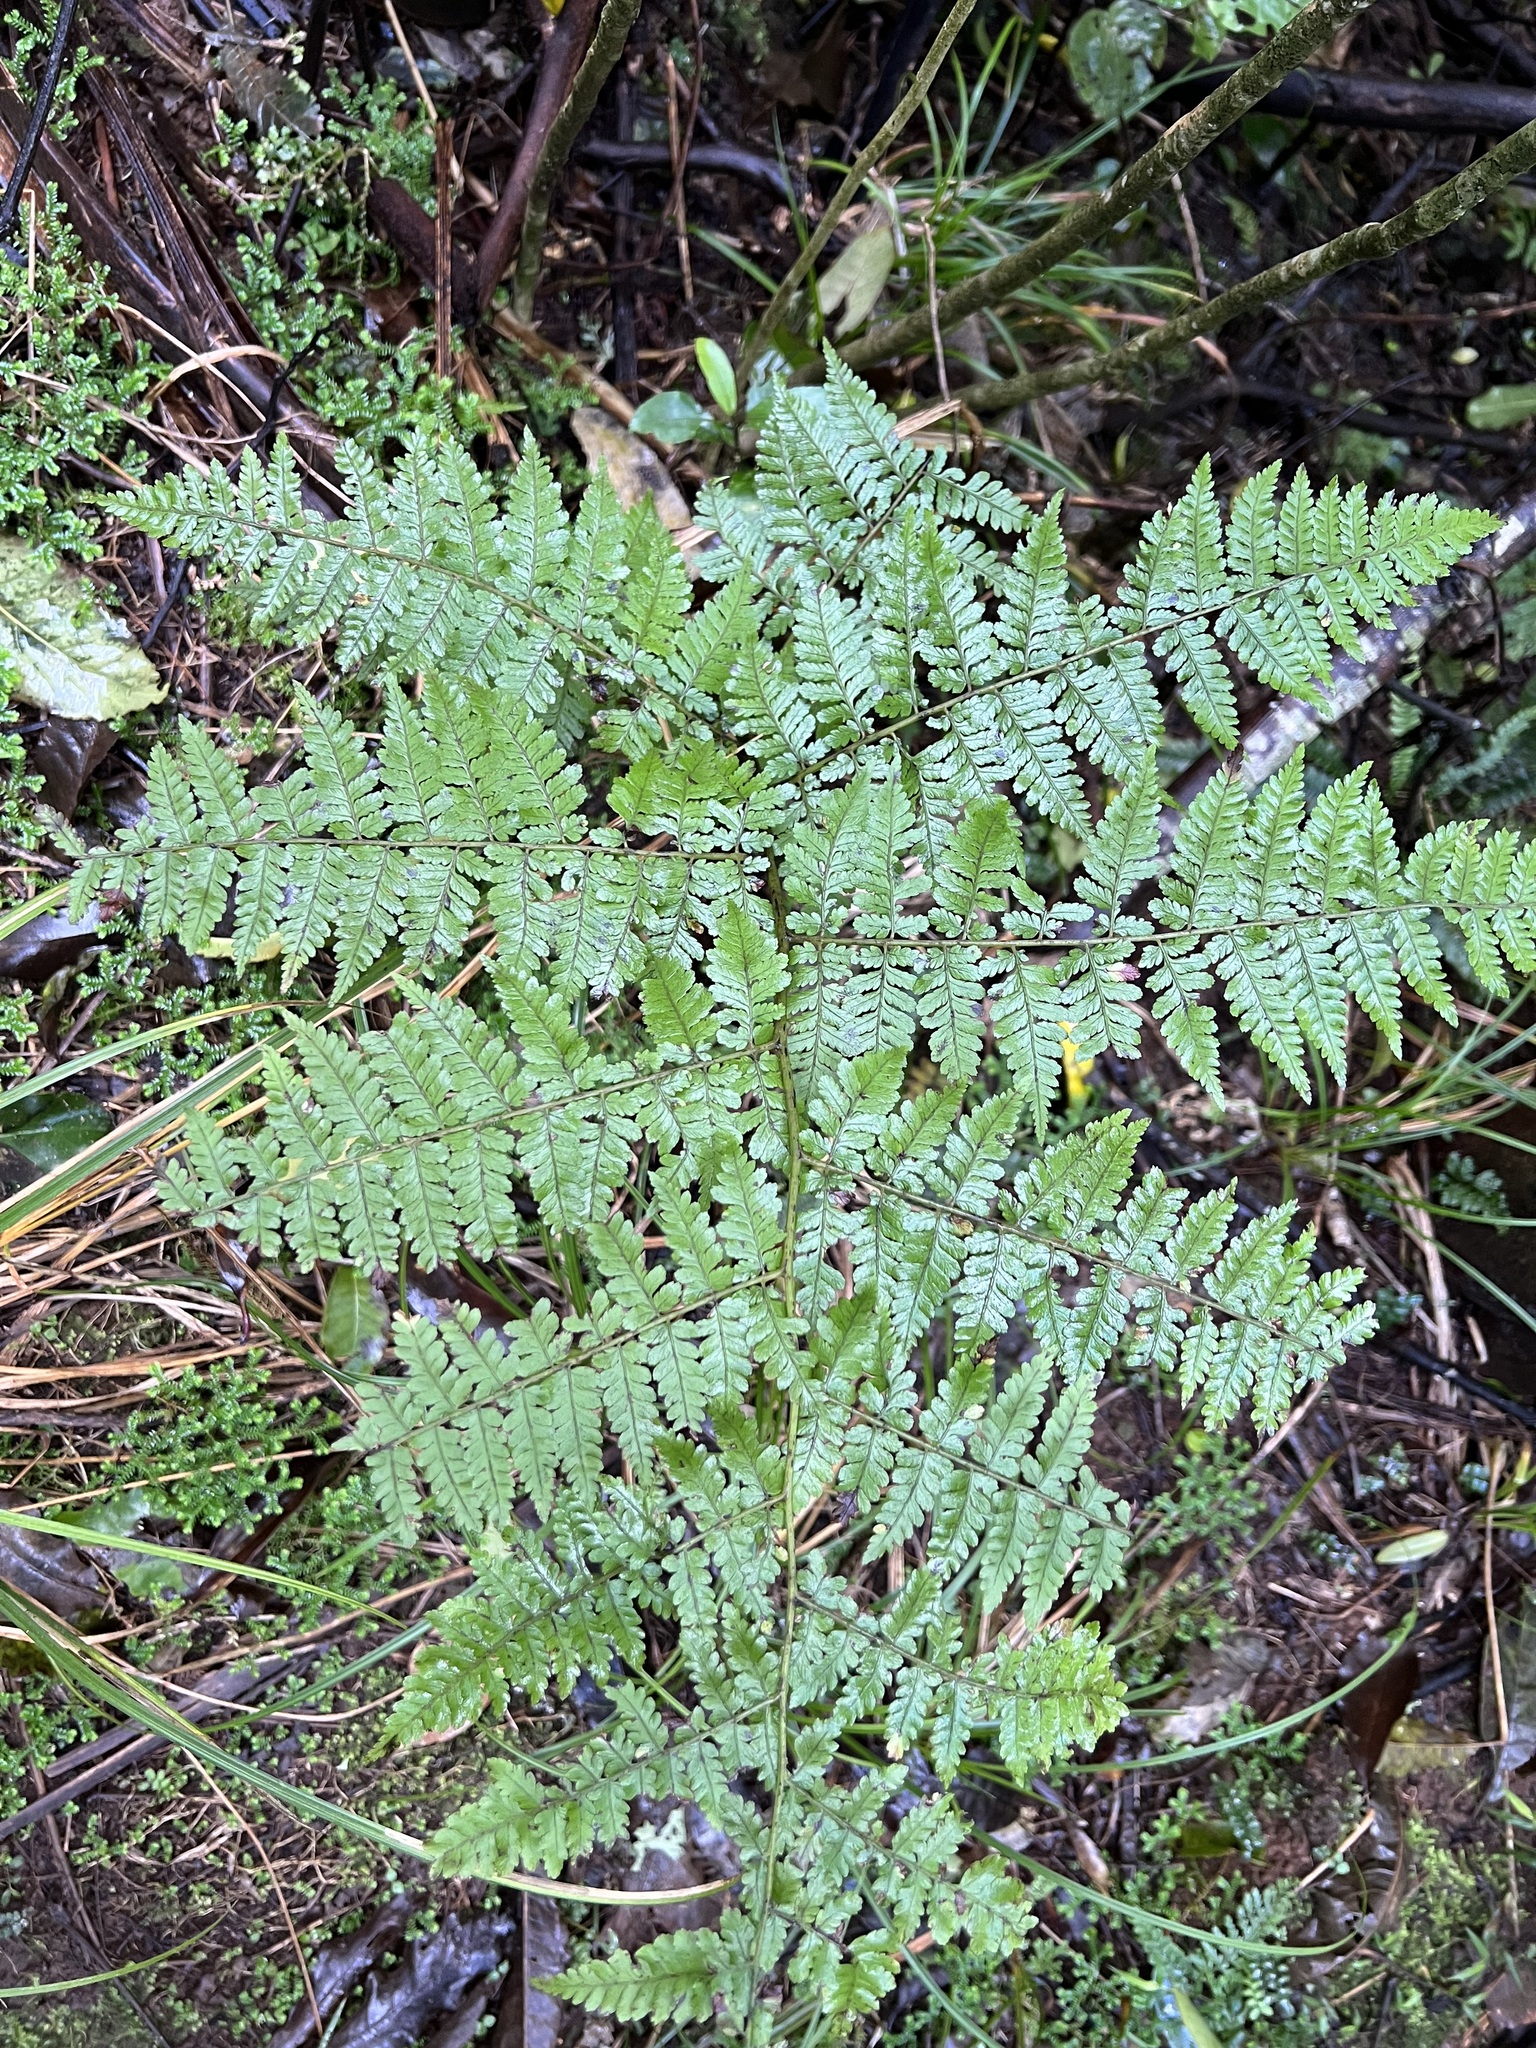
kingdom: Plantae
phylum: Tracheophyta
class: Polypodiopsida
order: Polypodiales
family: Athyriaceae
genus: Diplazium
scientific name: Diplazium australe
